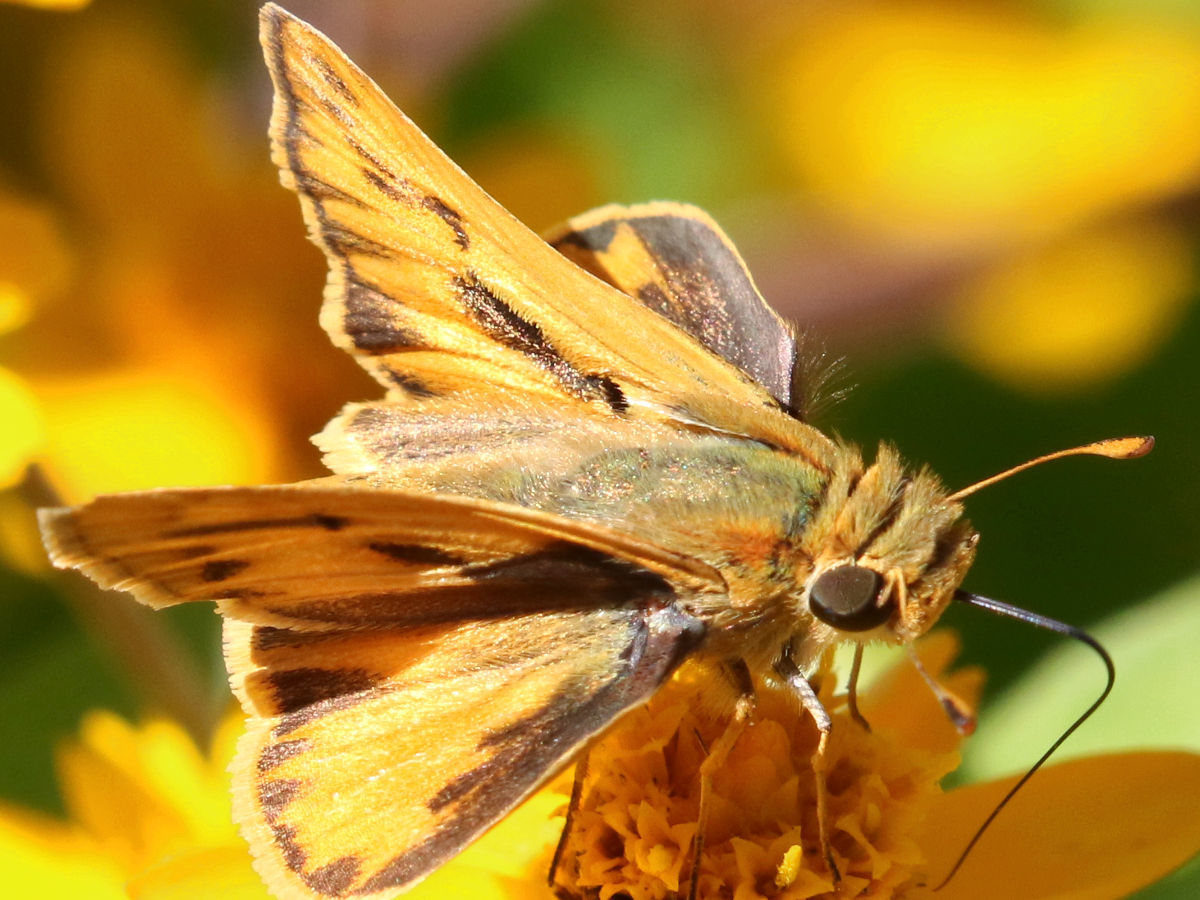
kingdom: Animalia
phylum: Arthropoda
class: Insecta
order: Lepidoptera
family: Hesperiidae
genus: Hylephila
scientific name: Hylephila phyleus
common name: Fiery skipper
